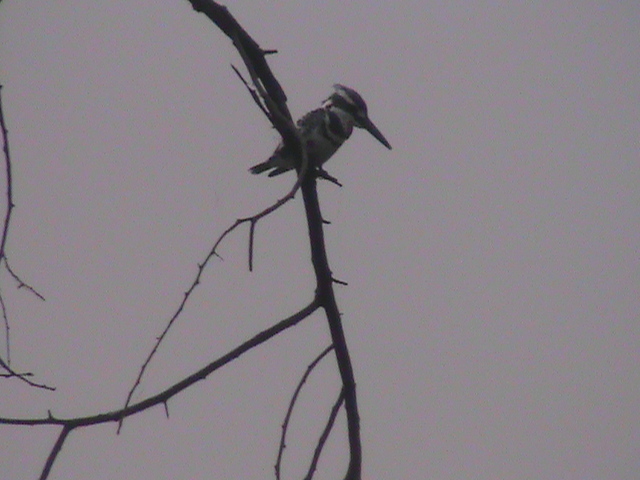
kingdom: Animalia
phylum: Chordata
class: Aves
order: Coraciiformes
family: Alcedinidae
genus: Ceryle
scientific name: Ceryle rudis
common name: Pied kingfisher
